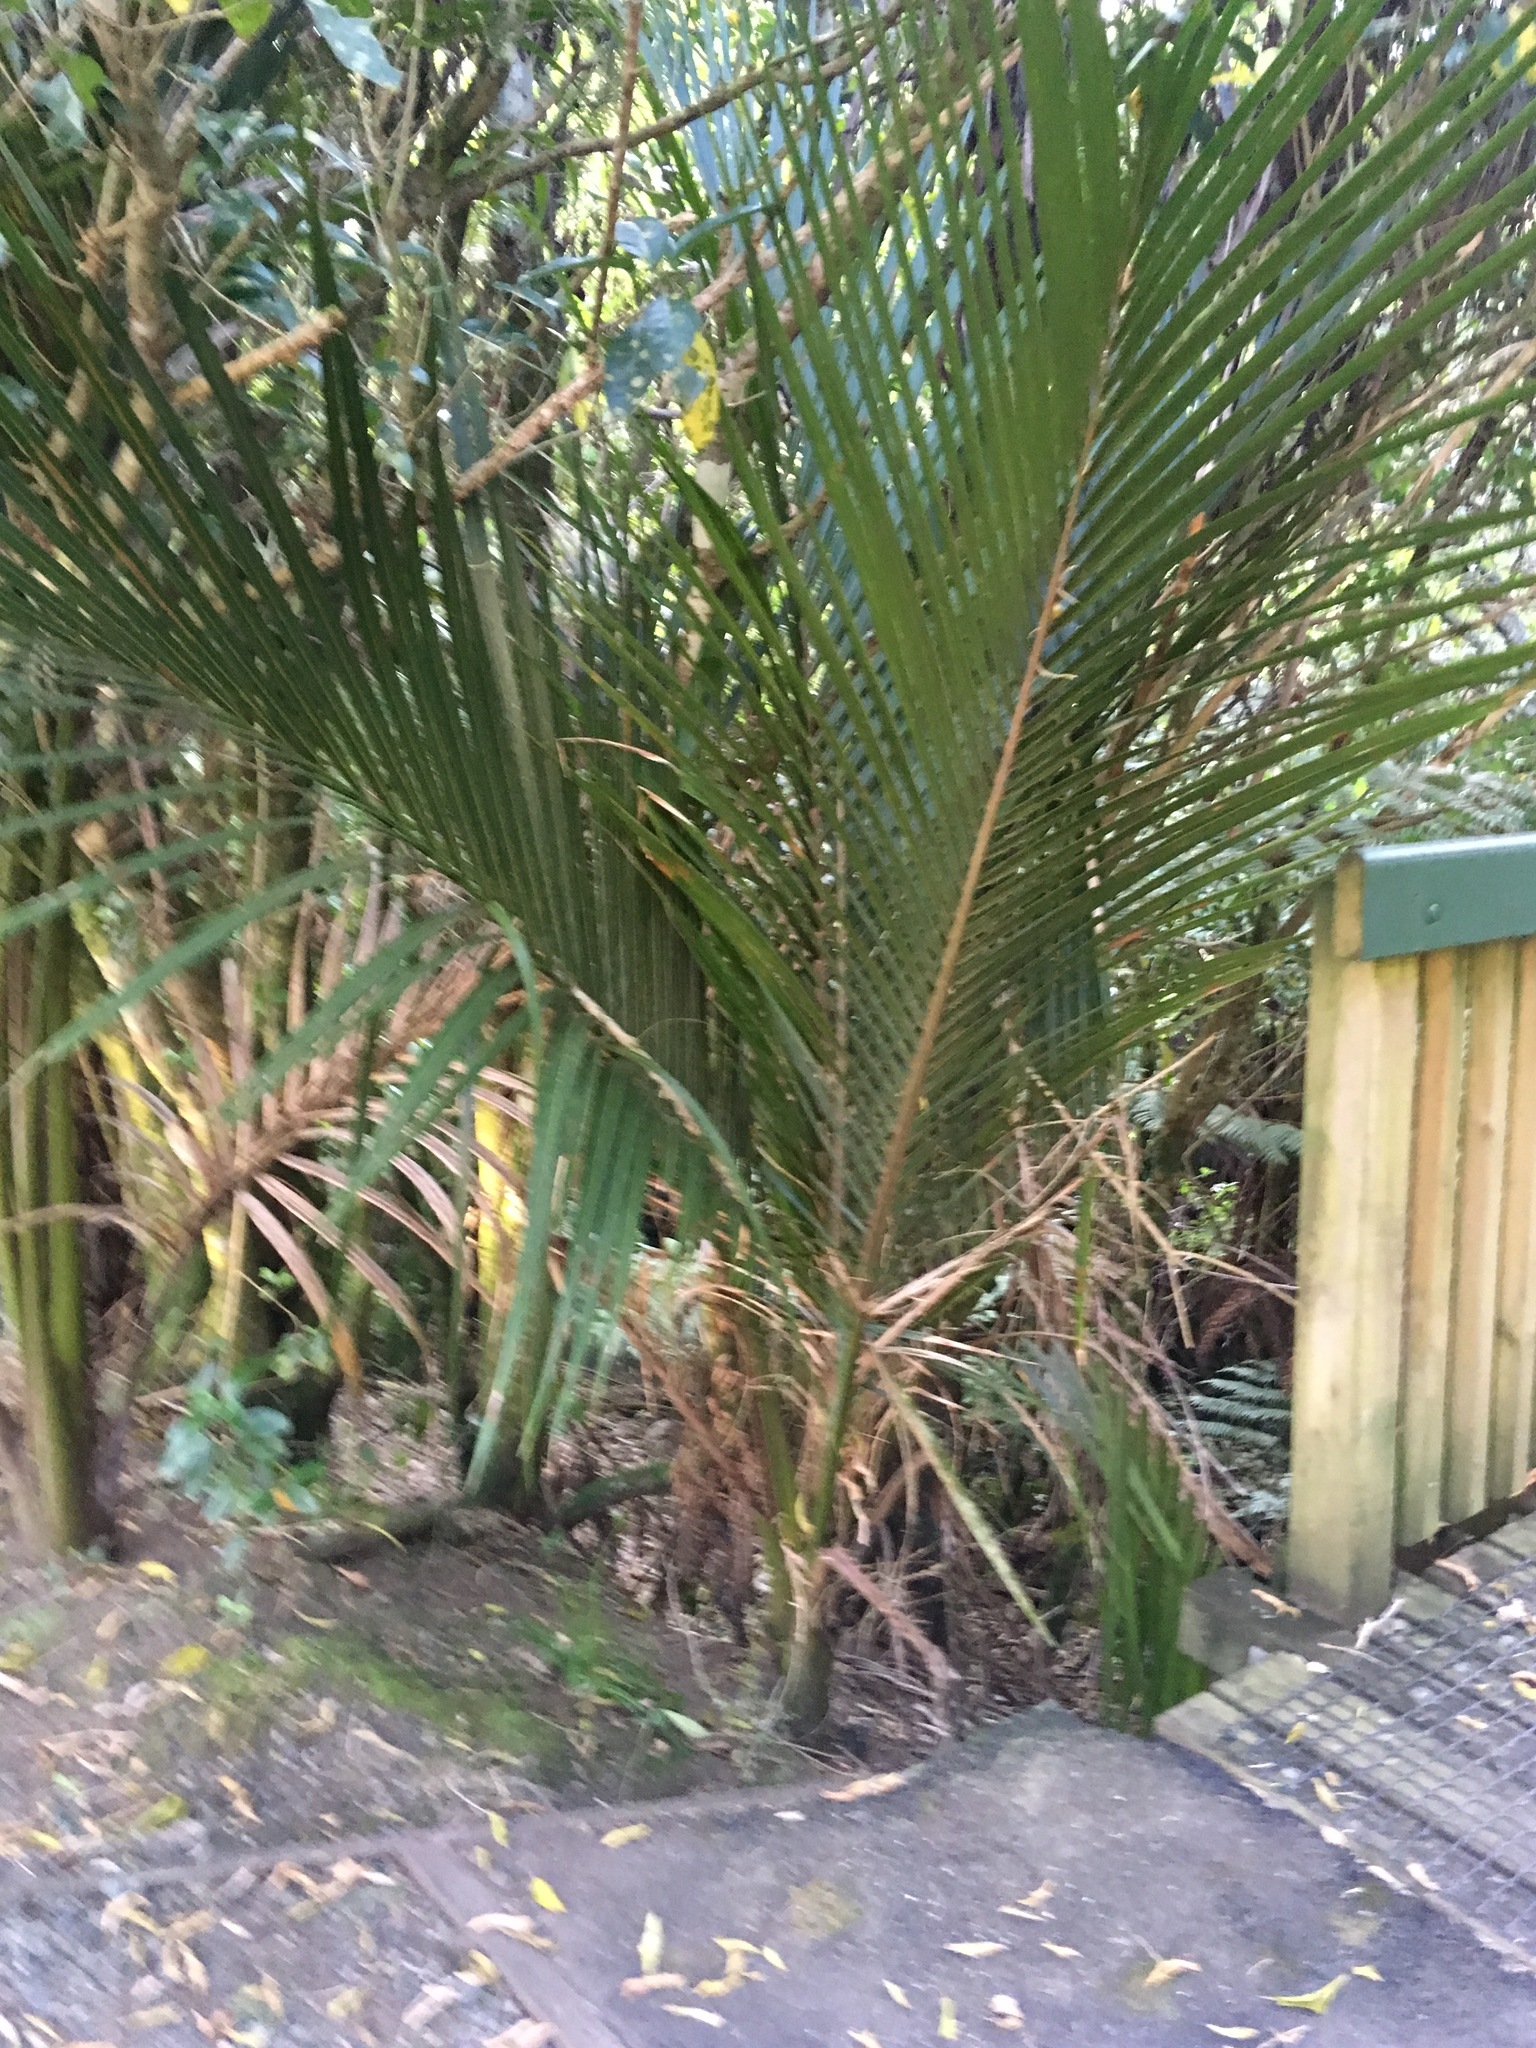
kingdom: Plantae
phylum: Tracheophyta
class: Liliopsida
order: Arecales
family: Arecaceae
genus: Rhopalostylis
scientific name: Rhopalostylis sapida
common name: Feather-duster palm
